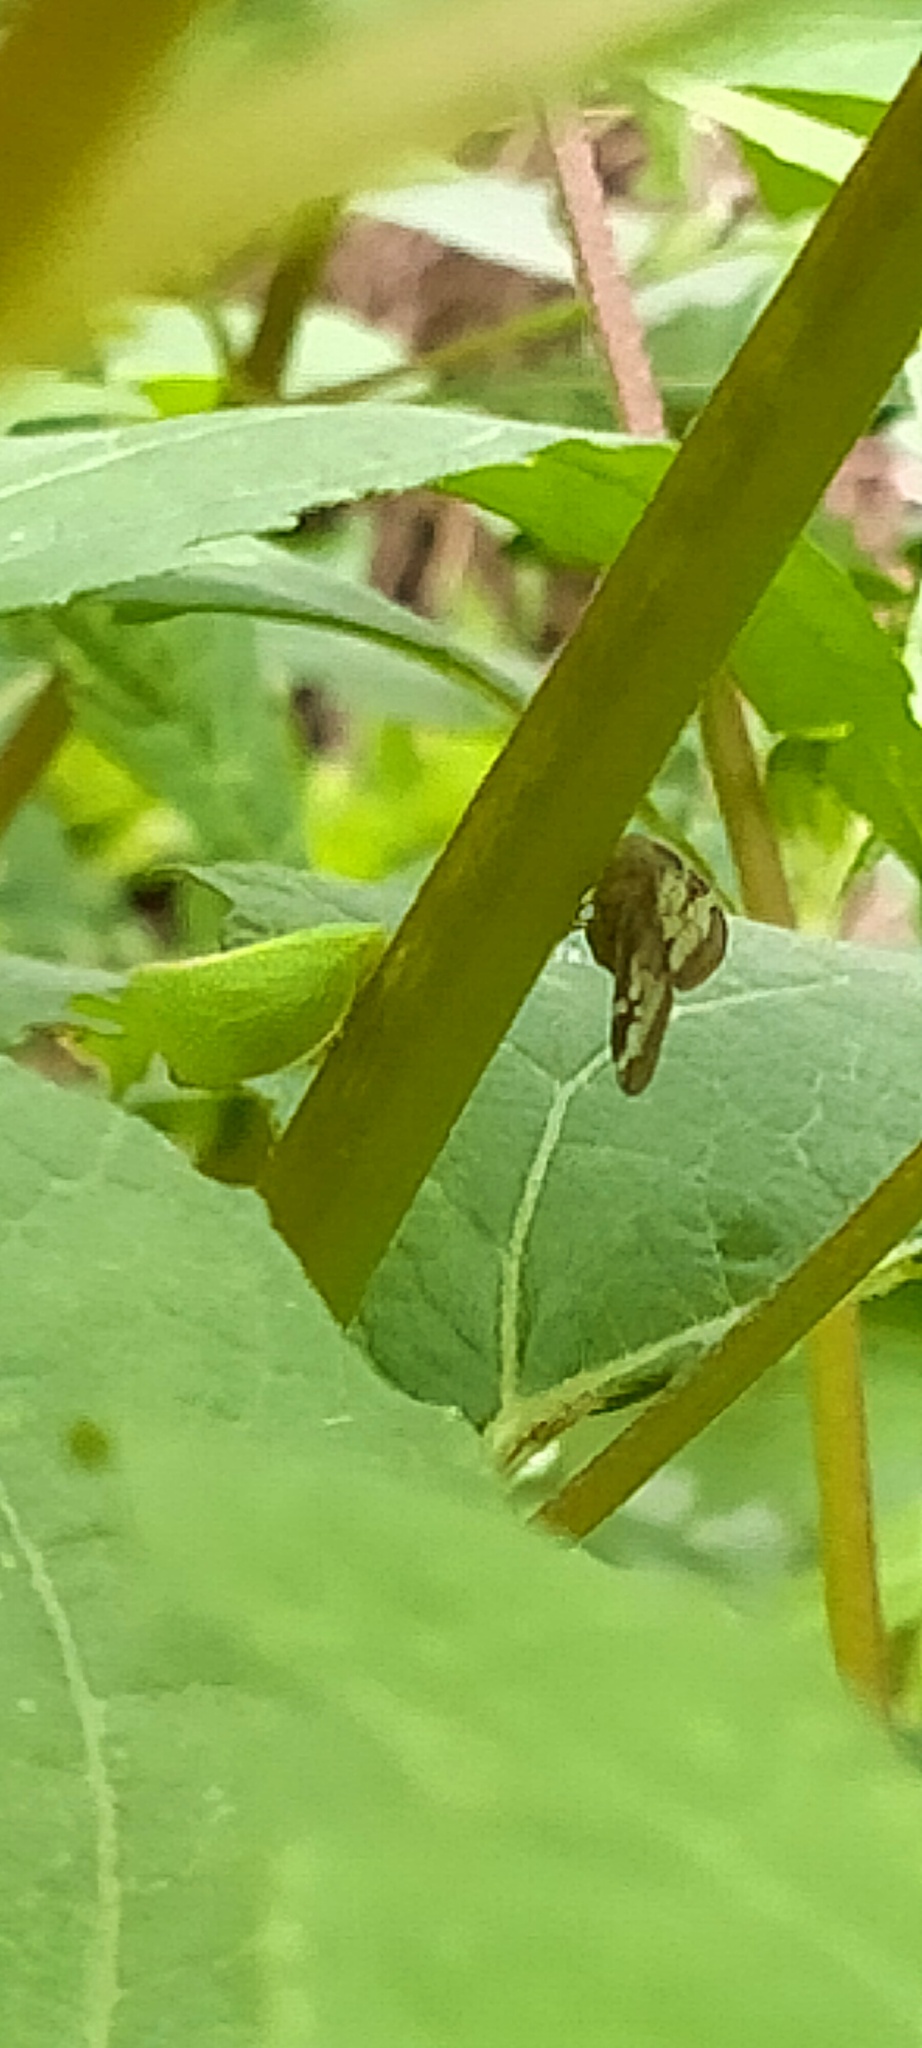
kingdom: Animalia
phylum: Arthropoda
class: Insecta
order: Hemiptera
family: Ricaniidae
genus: Scolypopa
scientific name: Scolypopa australis
